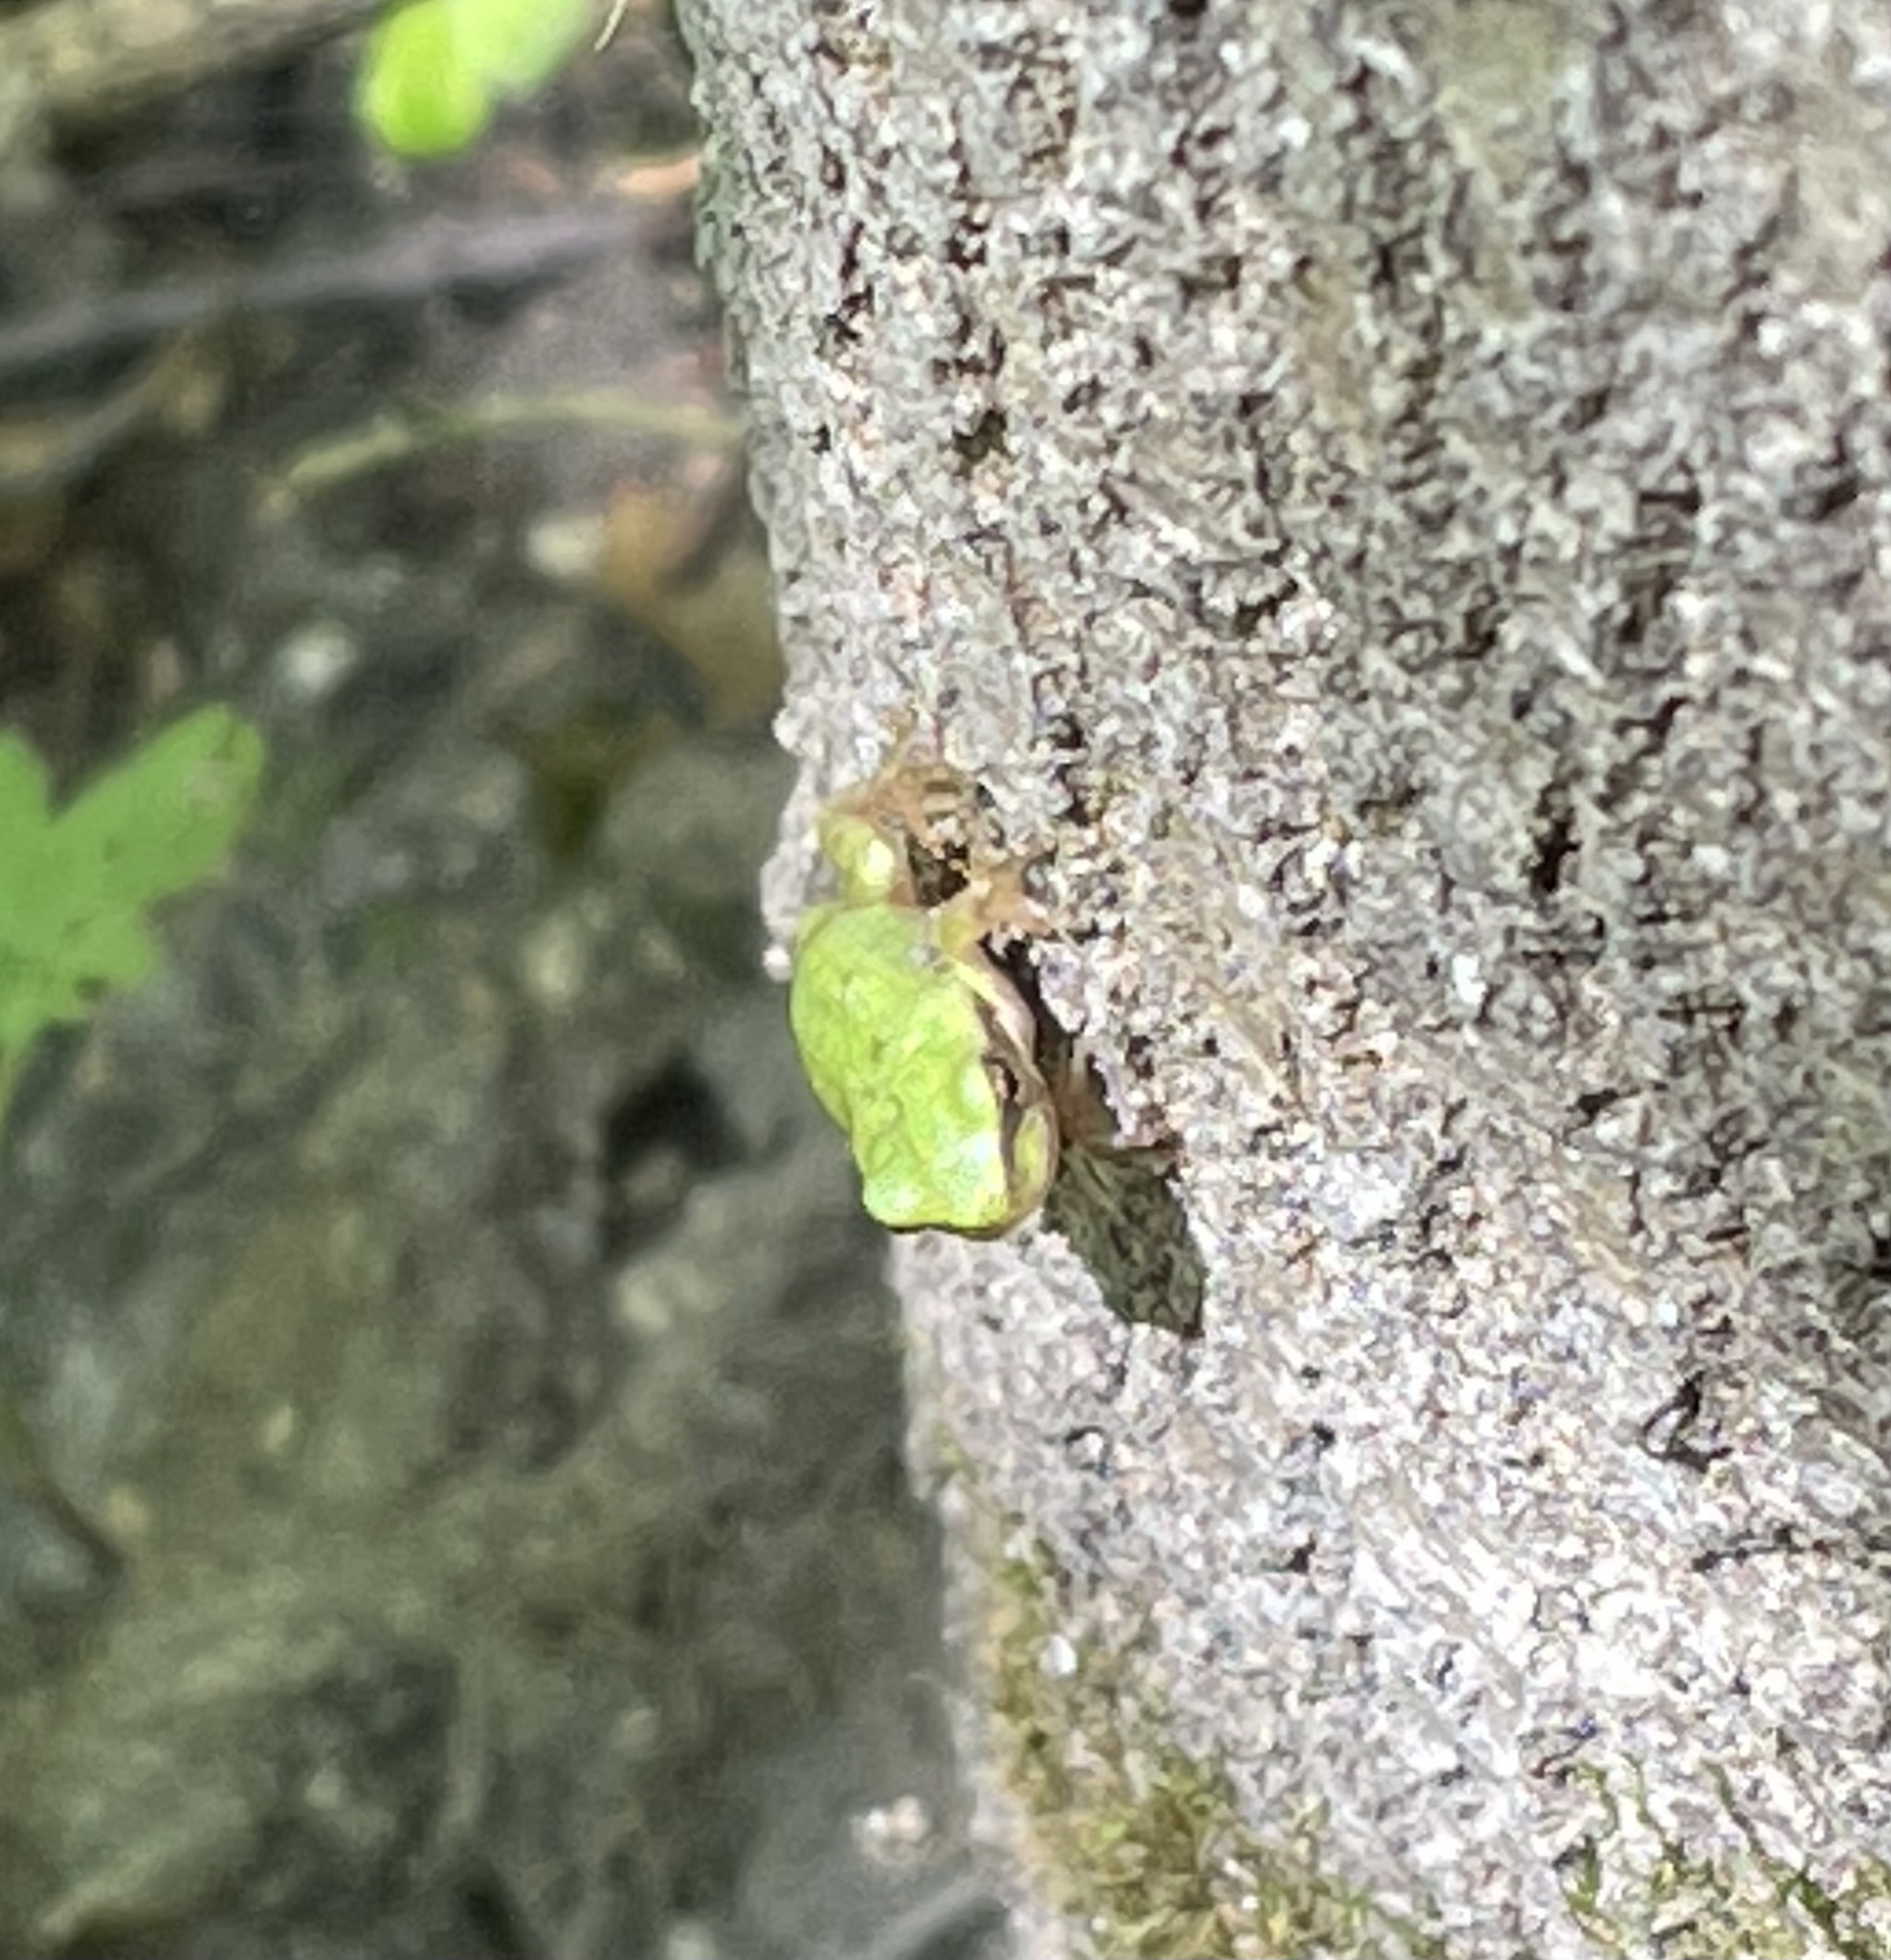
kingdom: Animalia
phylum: Chordata
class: Amphibia
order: Anura
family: Hylidae
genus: Hyla
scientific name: Hyla arborea
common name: Common tree frog
